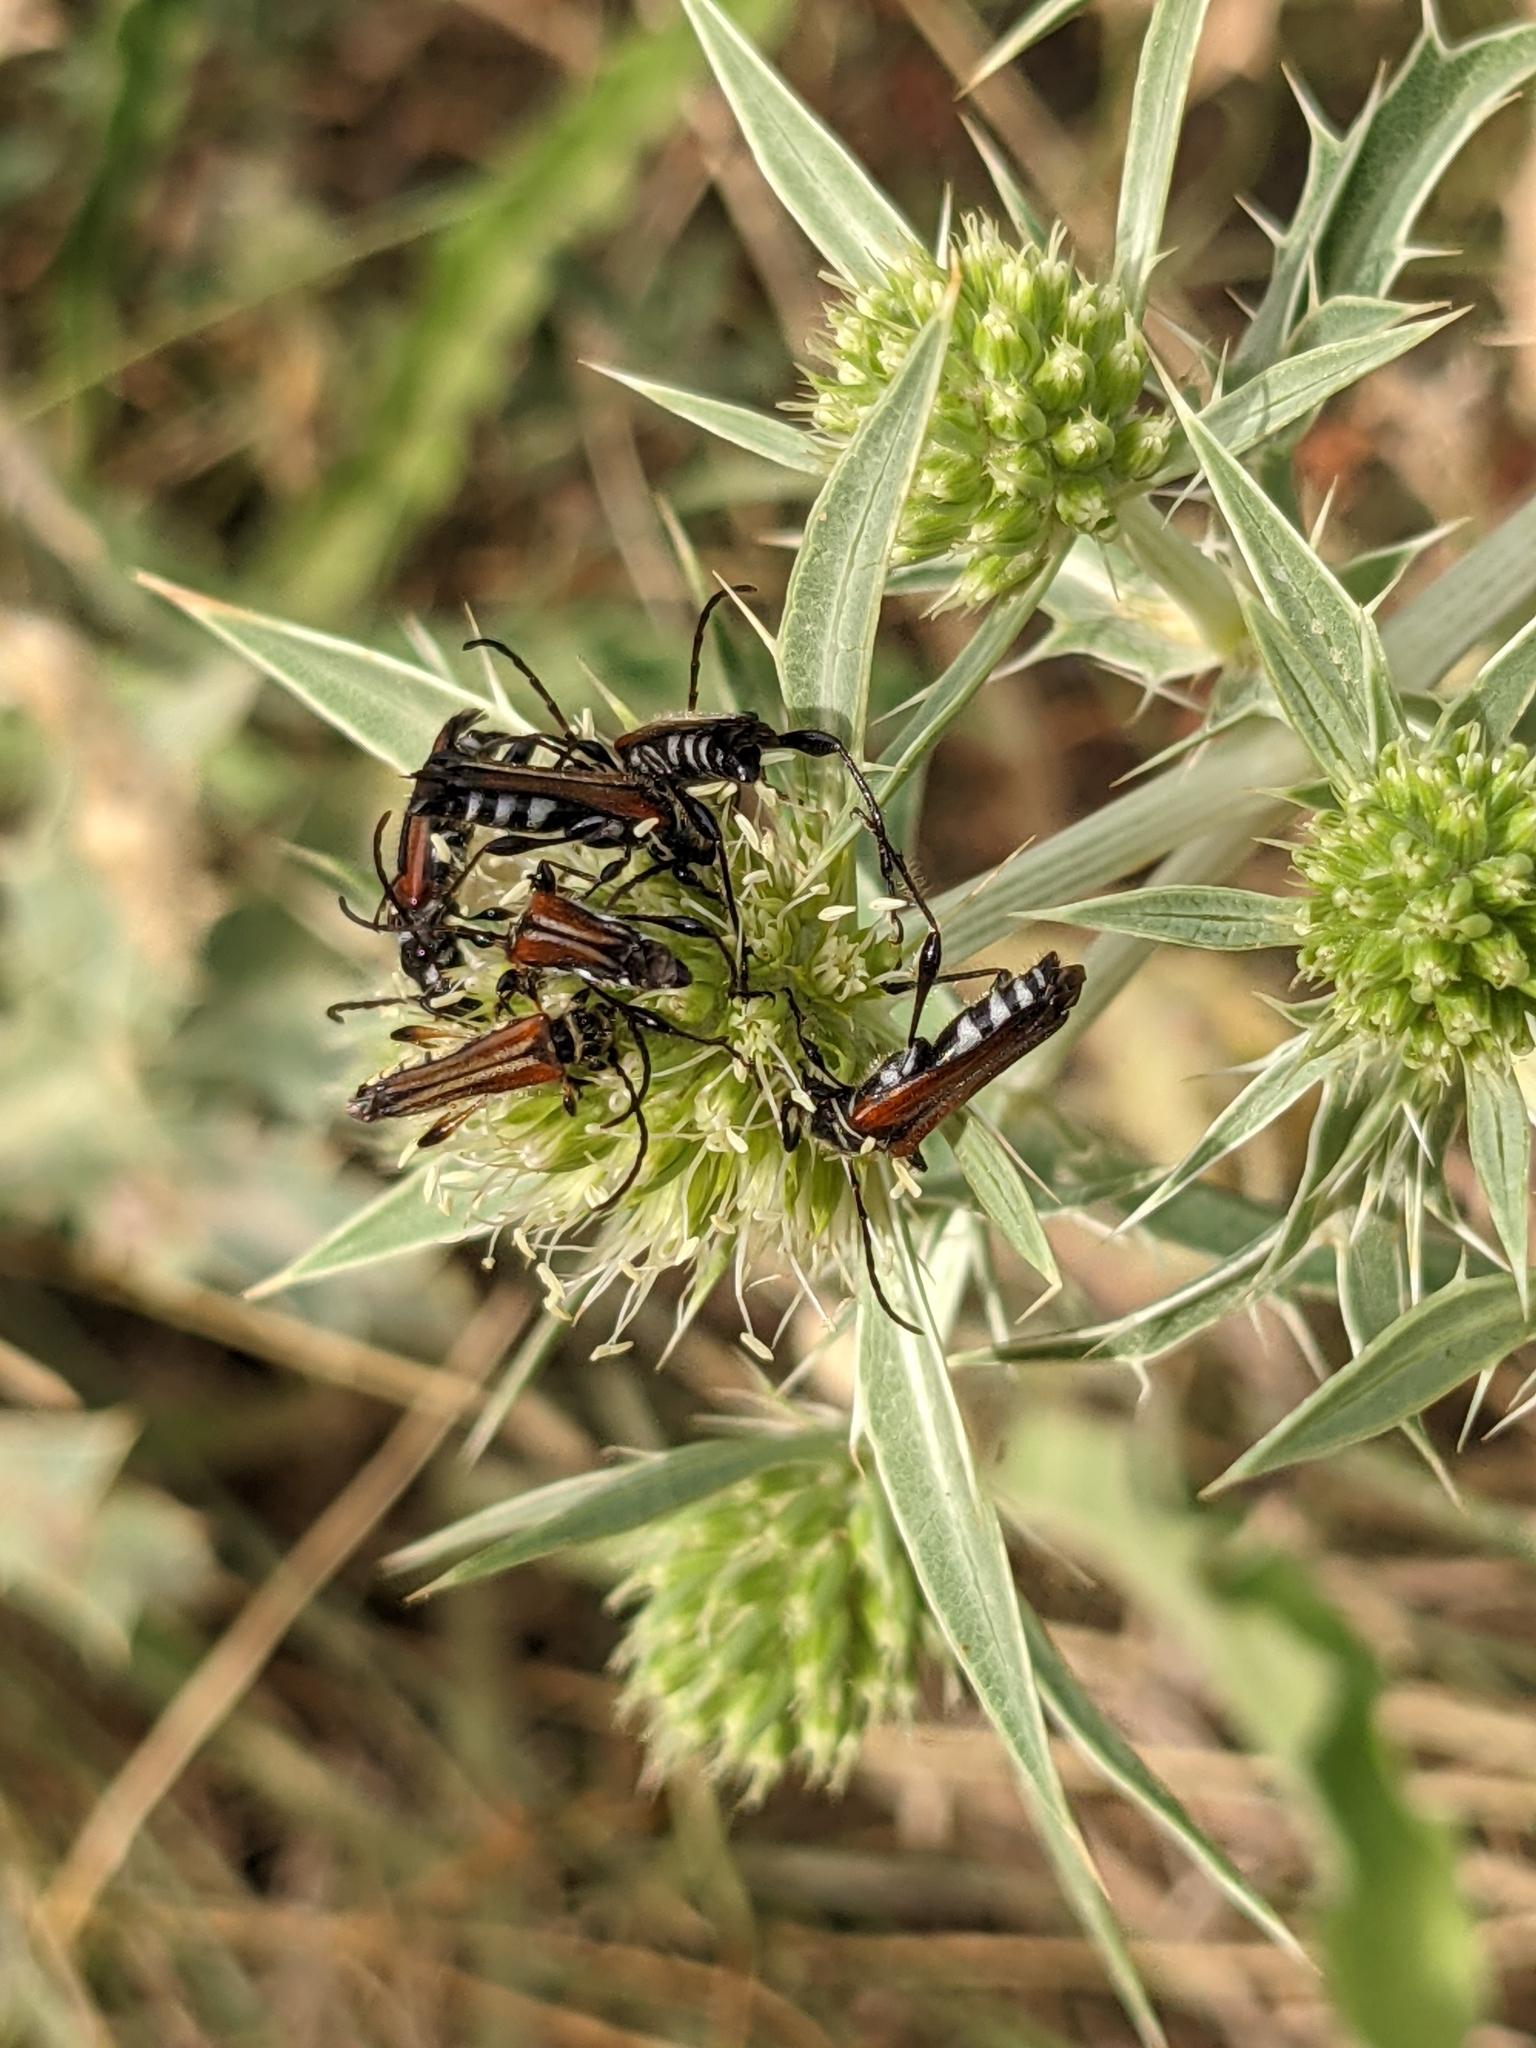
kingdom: Animalia
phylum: Arthropoda
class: Insecta
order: Coleoptera
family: Cerambycidae
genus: Stenopterus
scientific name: Stenopterus ater
